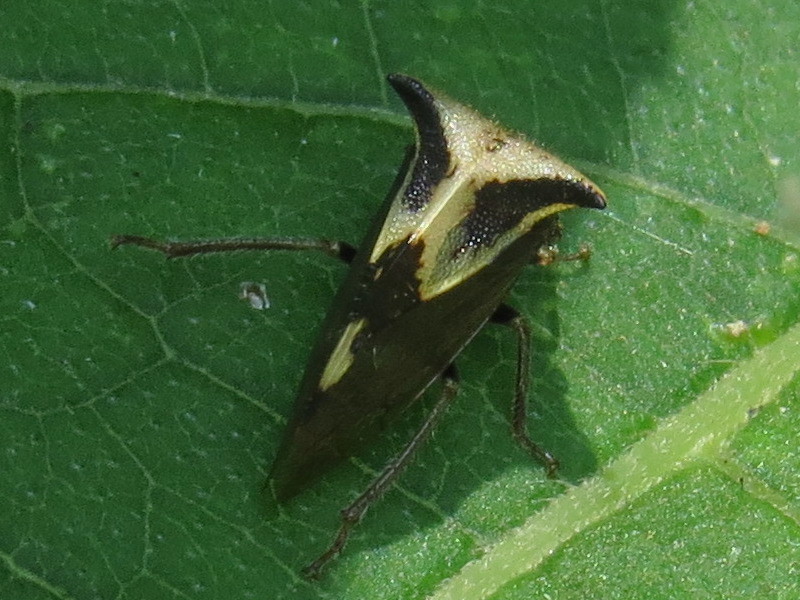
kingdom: Animalia
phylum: Arthropoda
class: Insecta
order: Hemiptera
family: Membracidae
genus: Stictocephala
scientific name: Stictocephala diceros
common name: Two-horned treehopper
